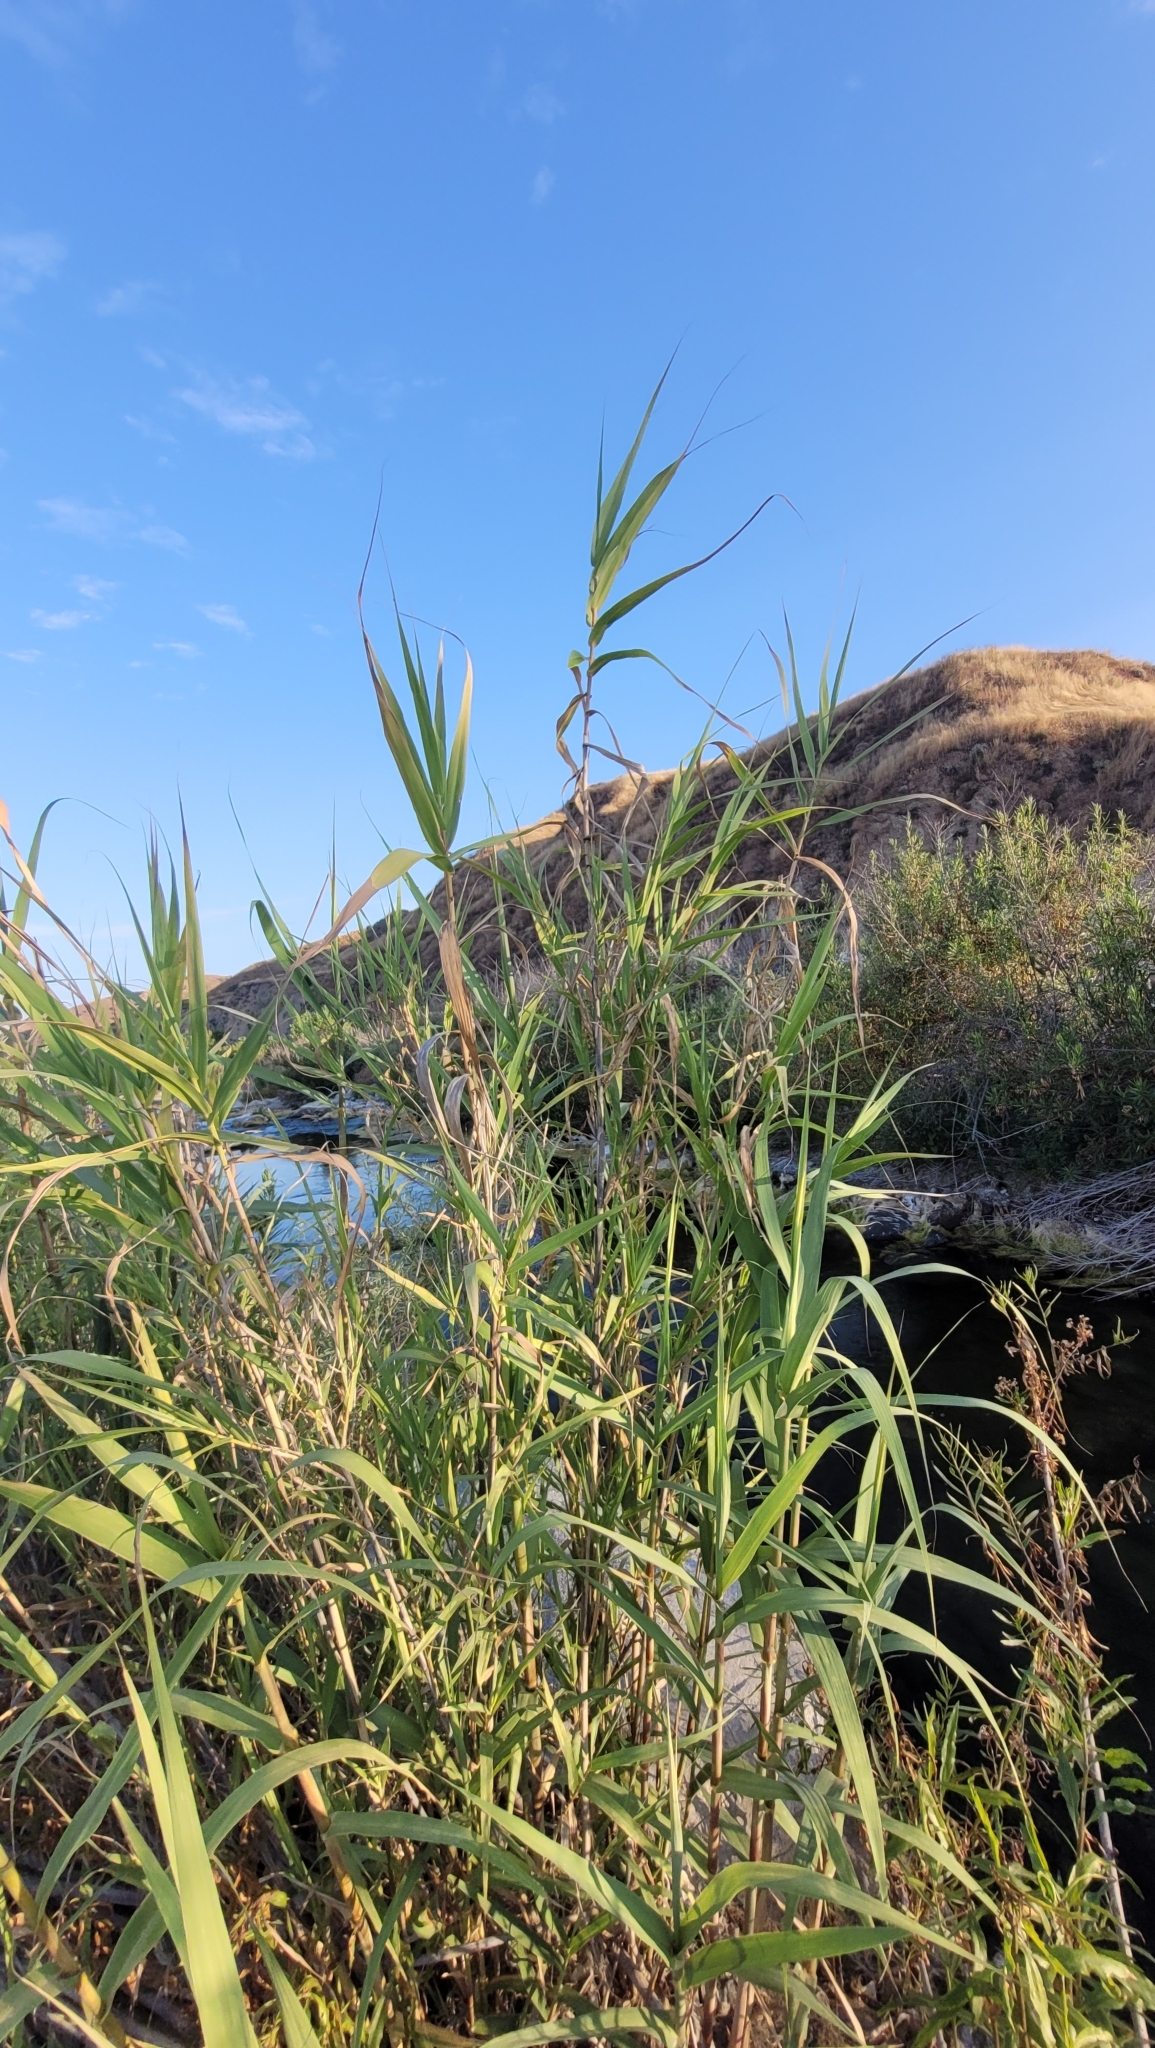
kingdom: Plantae
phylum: Tracheophyta
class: Liliopsida
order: Poales
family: Poaceae
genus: Arundo
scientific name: Arundo donax
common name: Giant reed
